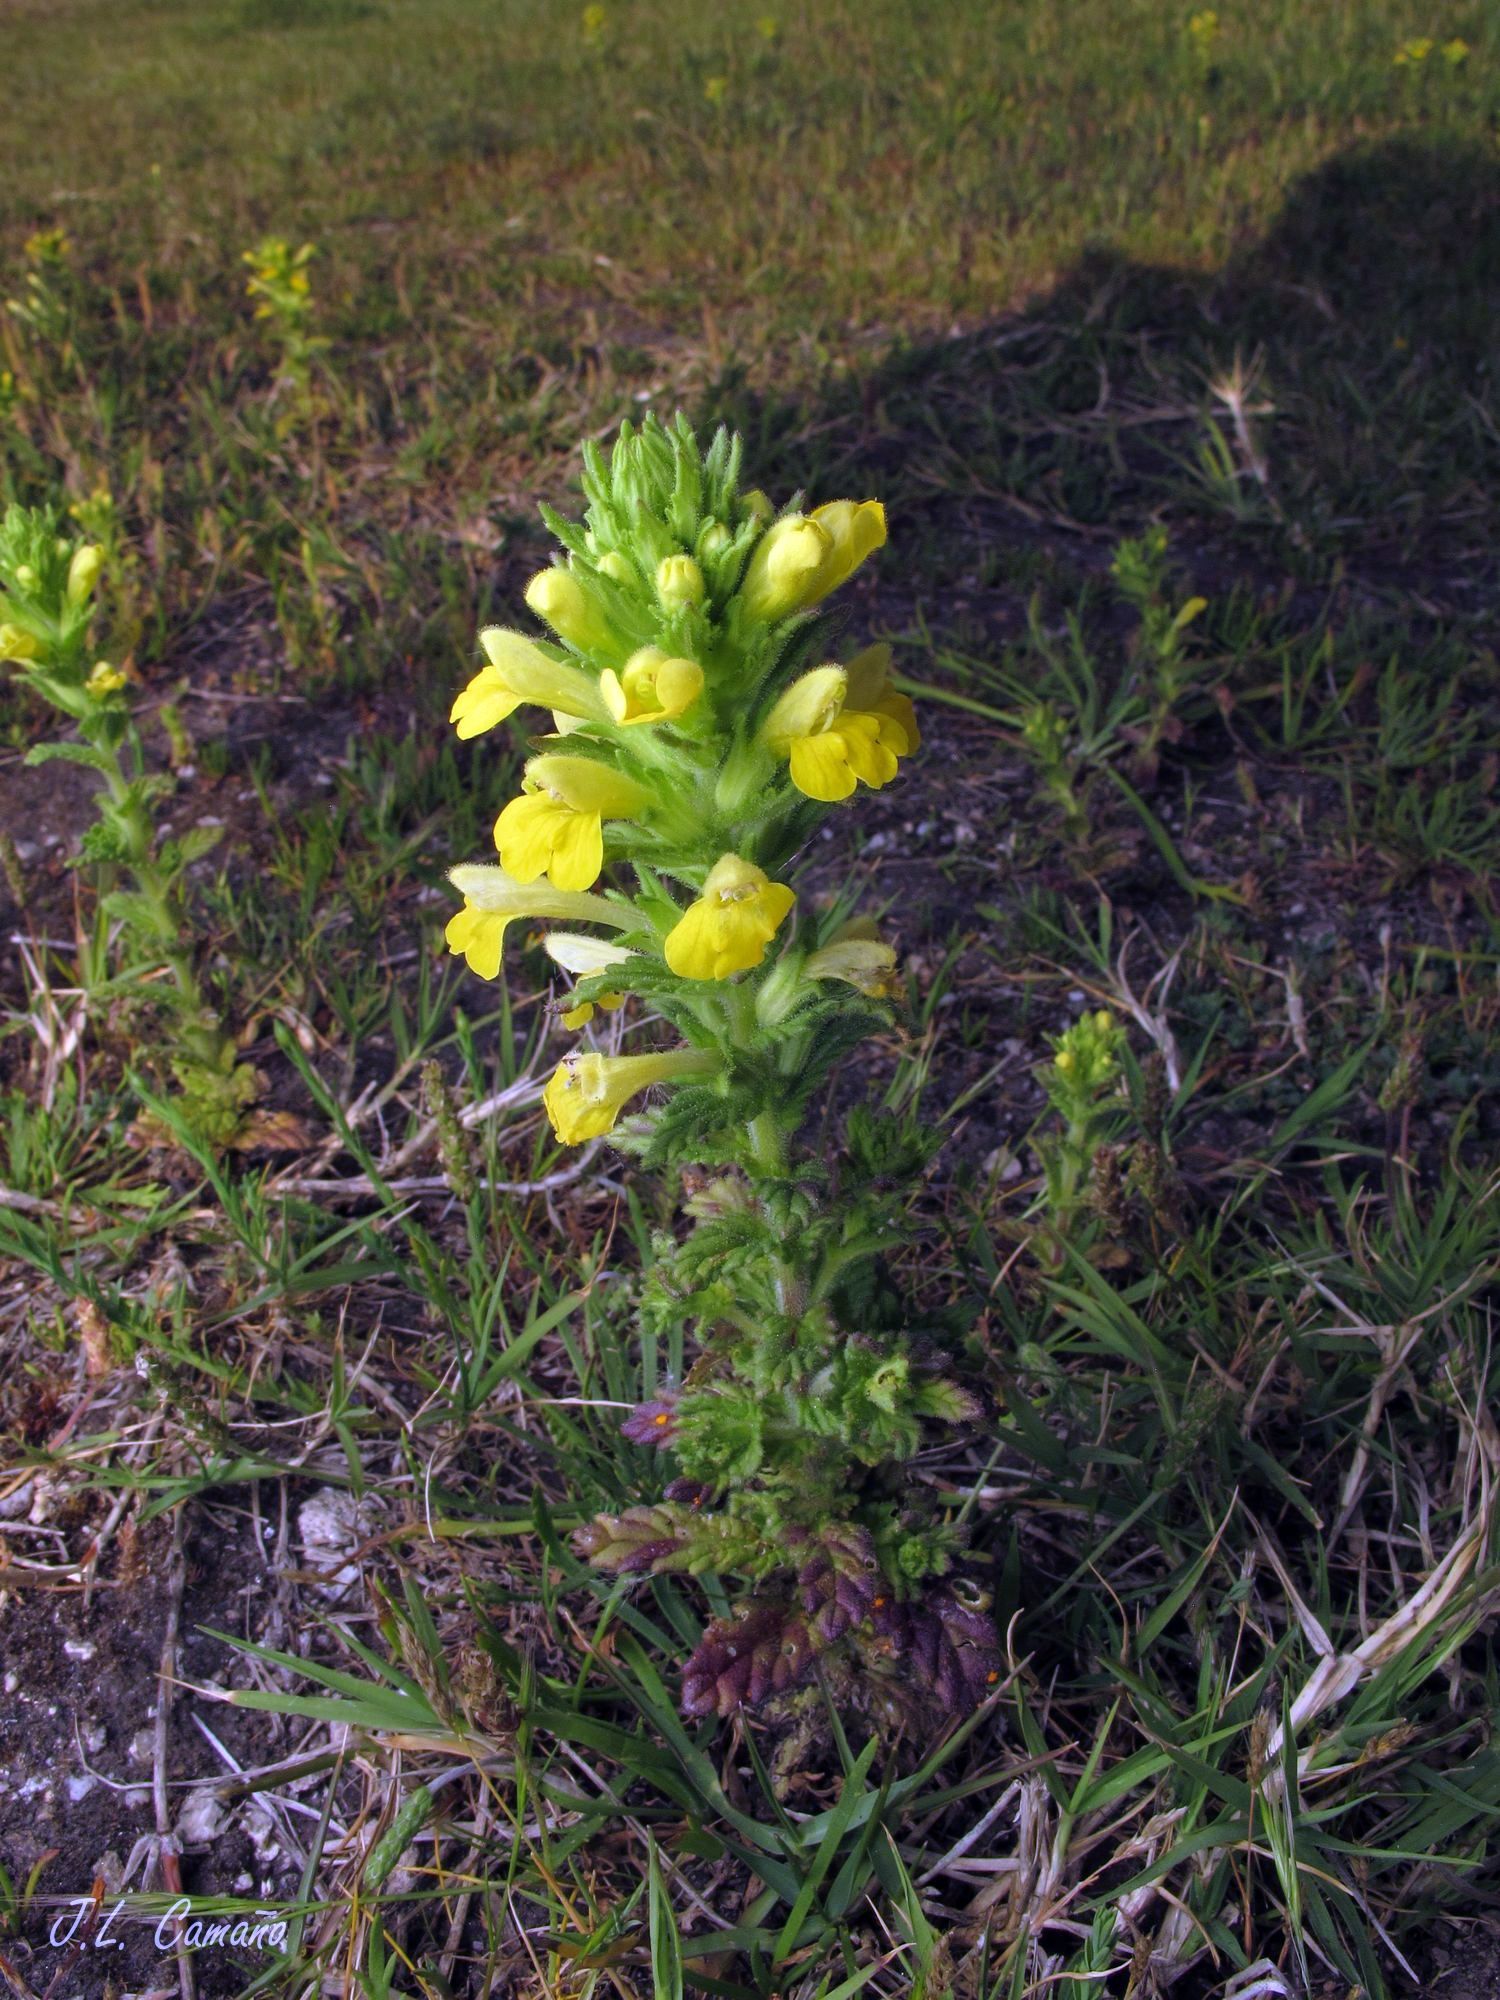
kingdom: Plantae
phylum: Tracheophyta
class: Magnoliopsida
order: Lamiales
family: Orobanchaceae
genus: Bellardia
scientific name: Bellardia viscosa
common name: Sticky parentucellia
